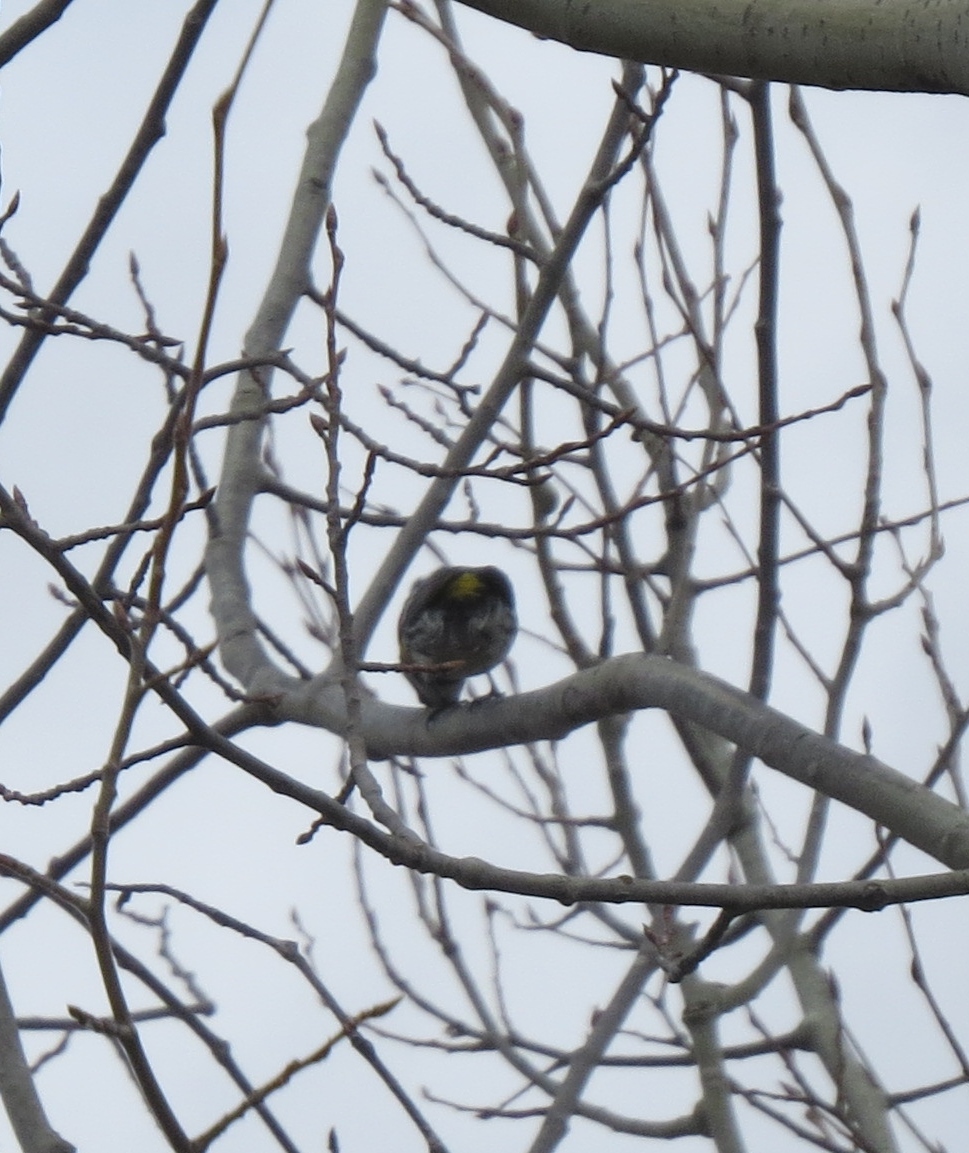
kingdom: Animalia
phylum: Chordata
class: Aves
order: Passeriformes
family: Parulidae
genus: Setophaga
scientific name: Setophaga coronata
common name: Myrtle warbler
